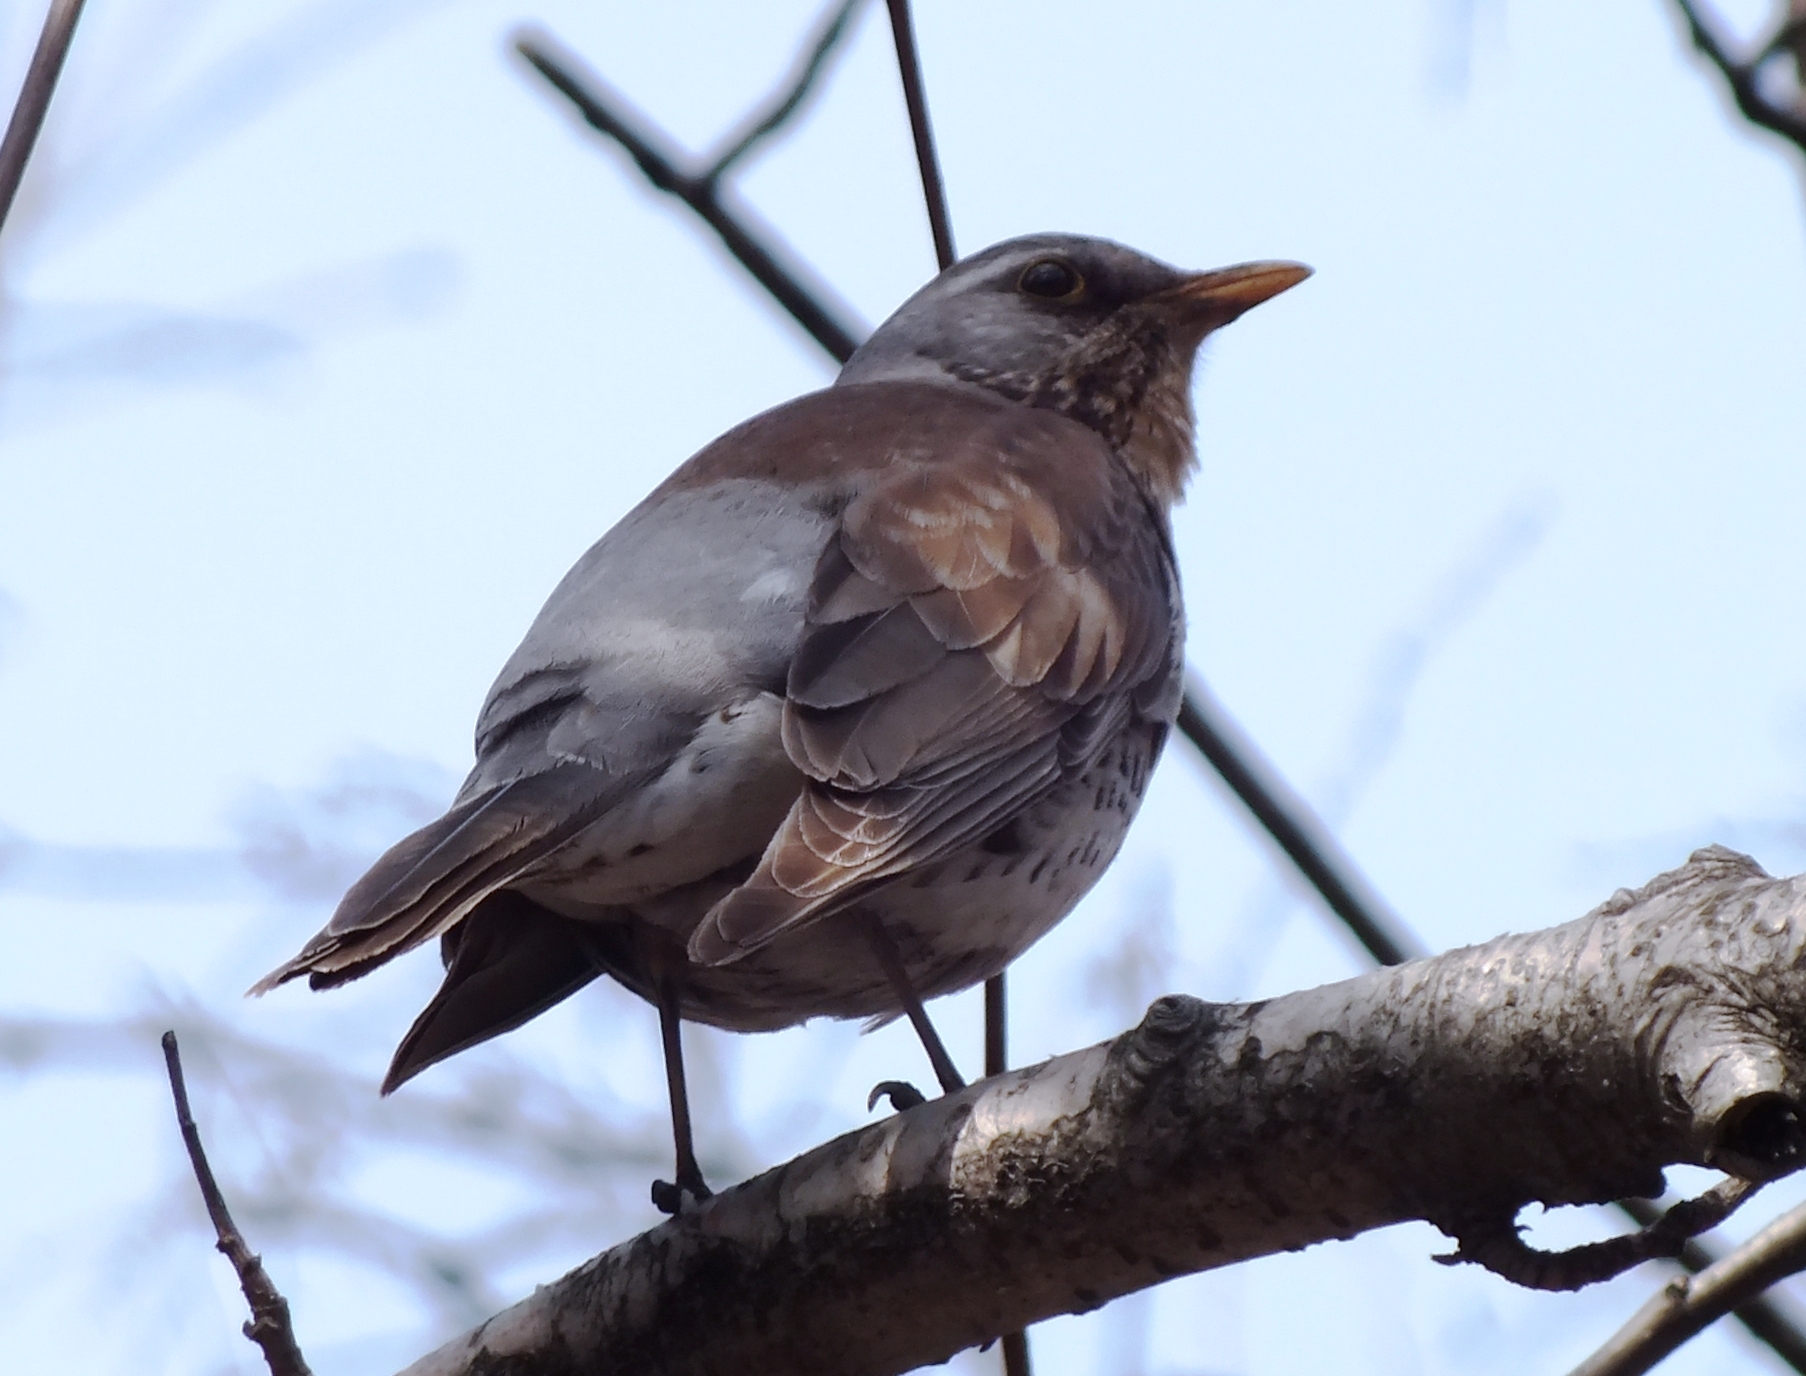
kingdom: Animalia
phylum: Chordata
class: Aves
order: Passeriformes
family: Turdidae
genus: Turdus
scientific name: Turdus pilaris
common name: Fieldfare
